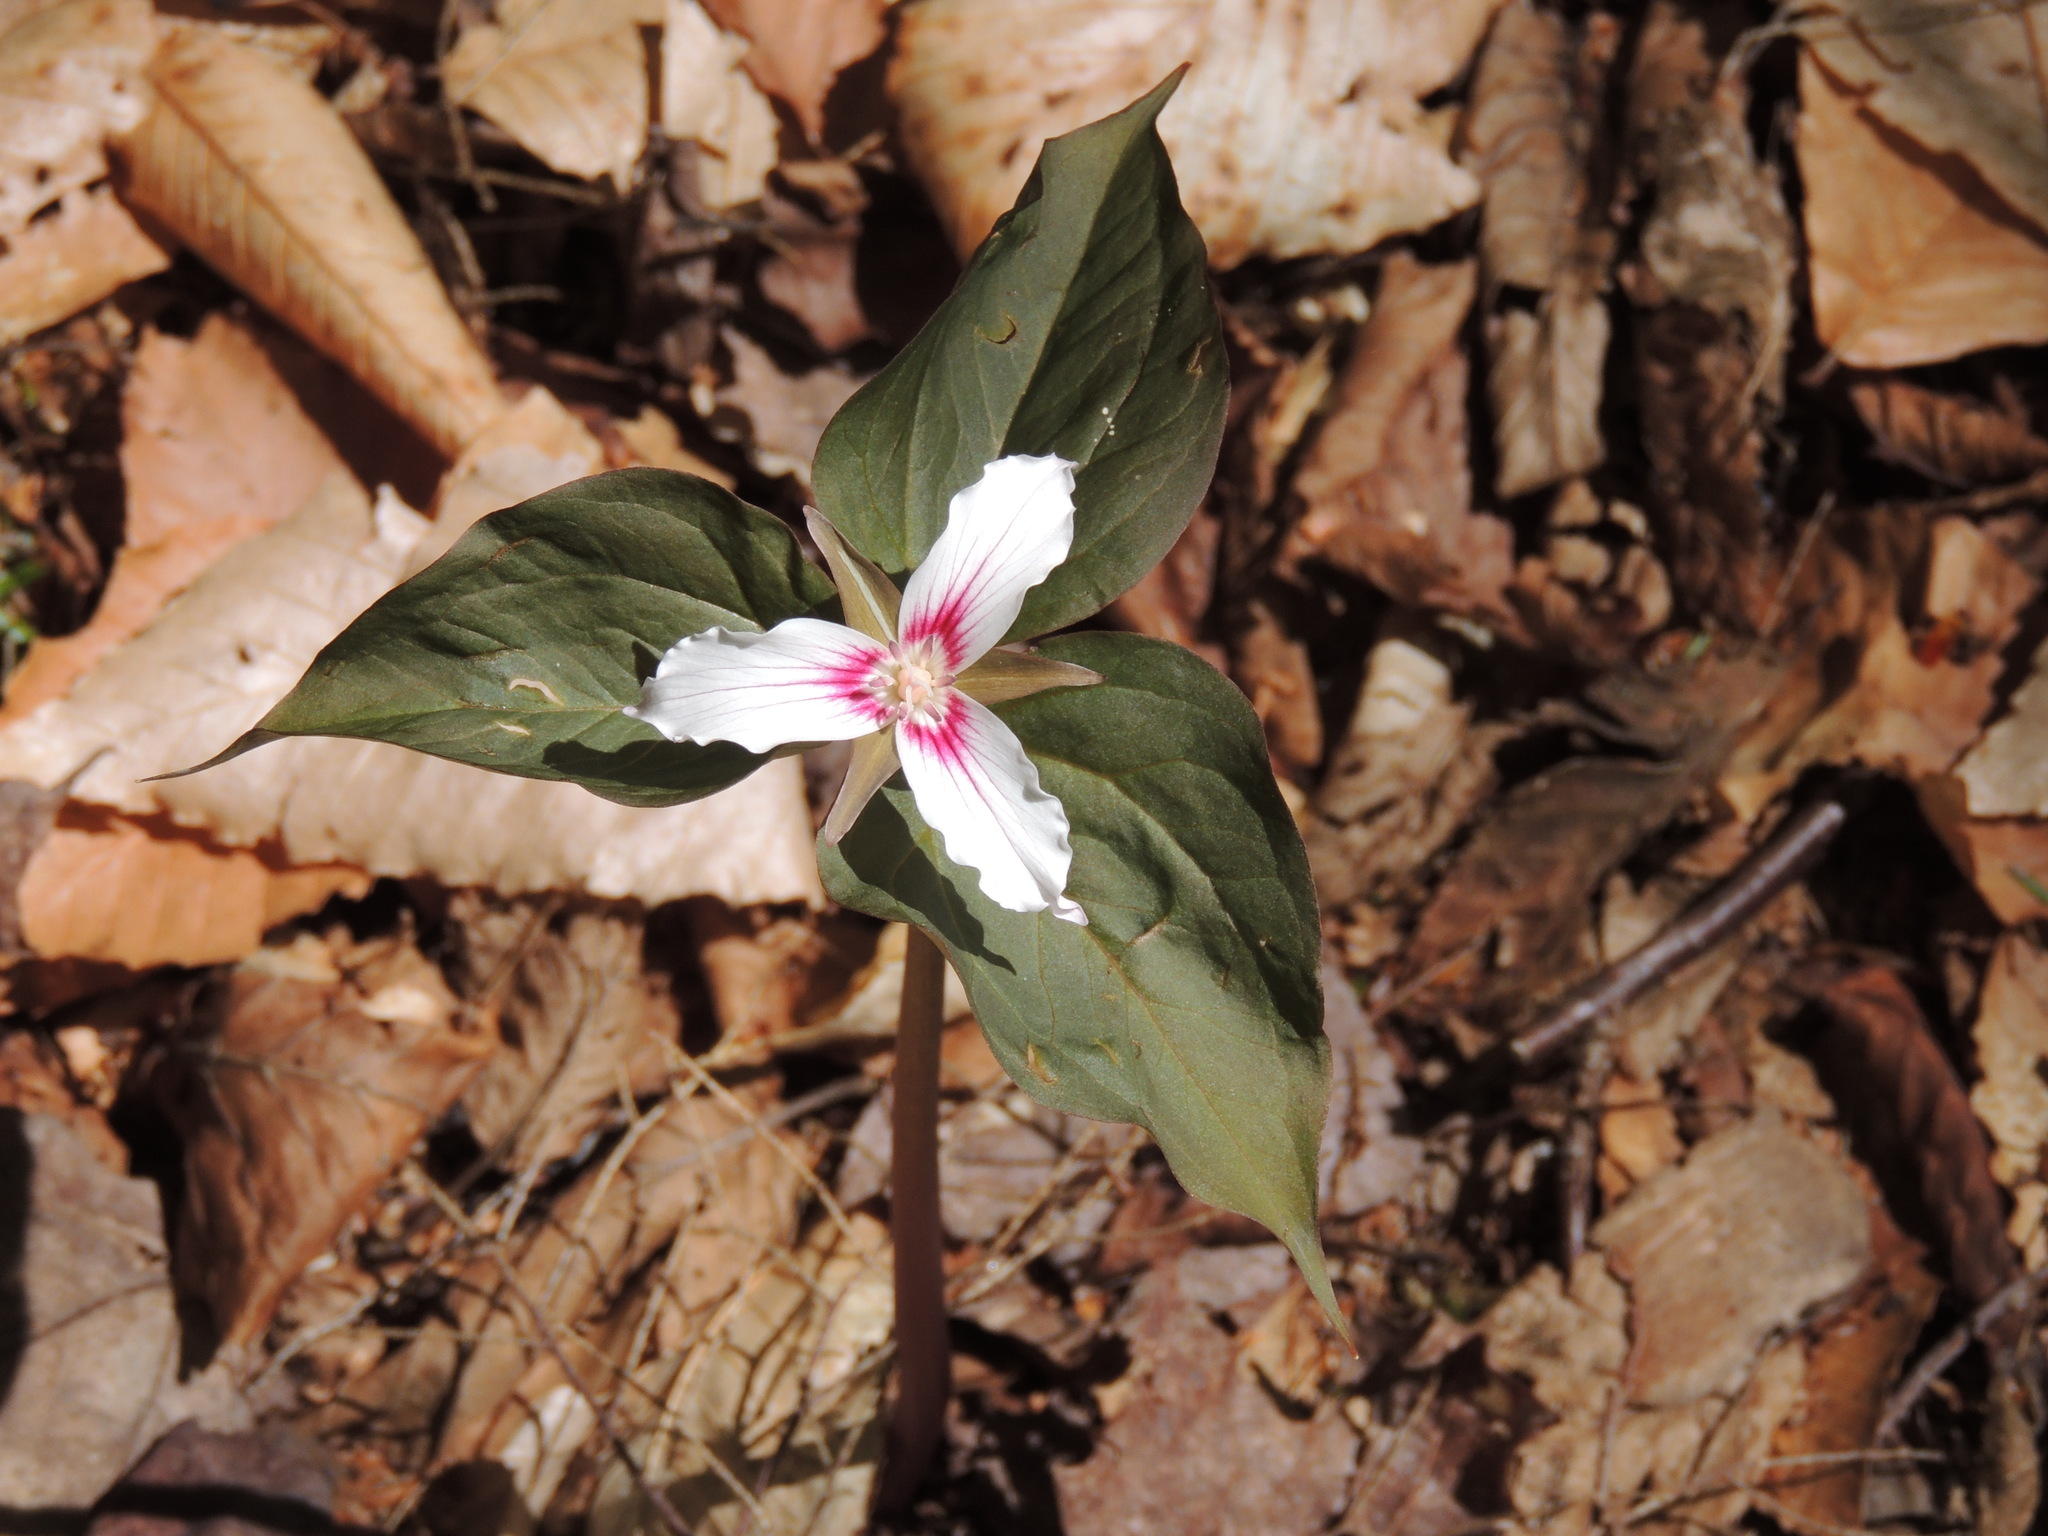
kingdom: Plantae
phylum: Tracheophyta
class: Liliopsida
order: Liliales
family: Melanthiaceae
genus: Trillium
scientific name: Trillium undulatum
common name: Paint trillium
